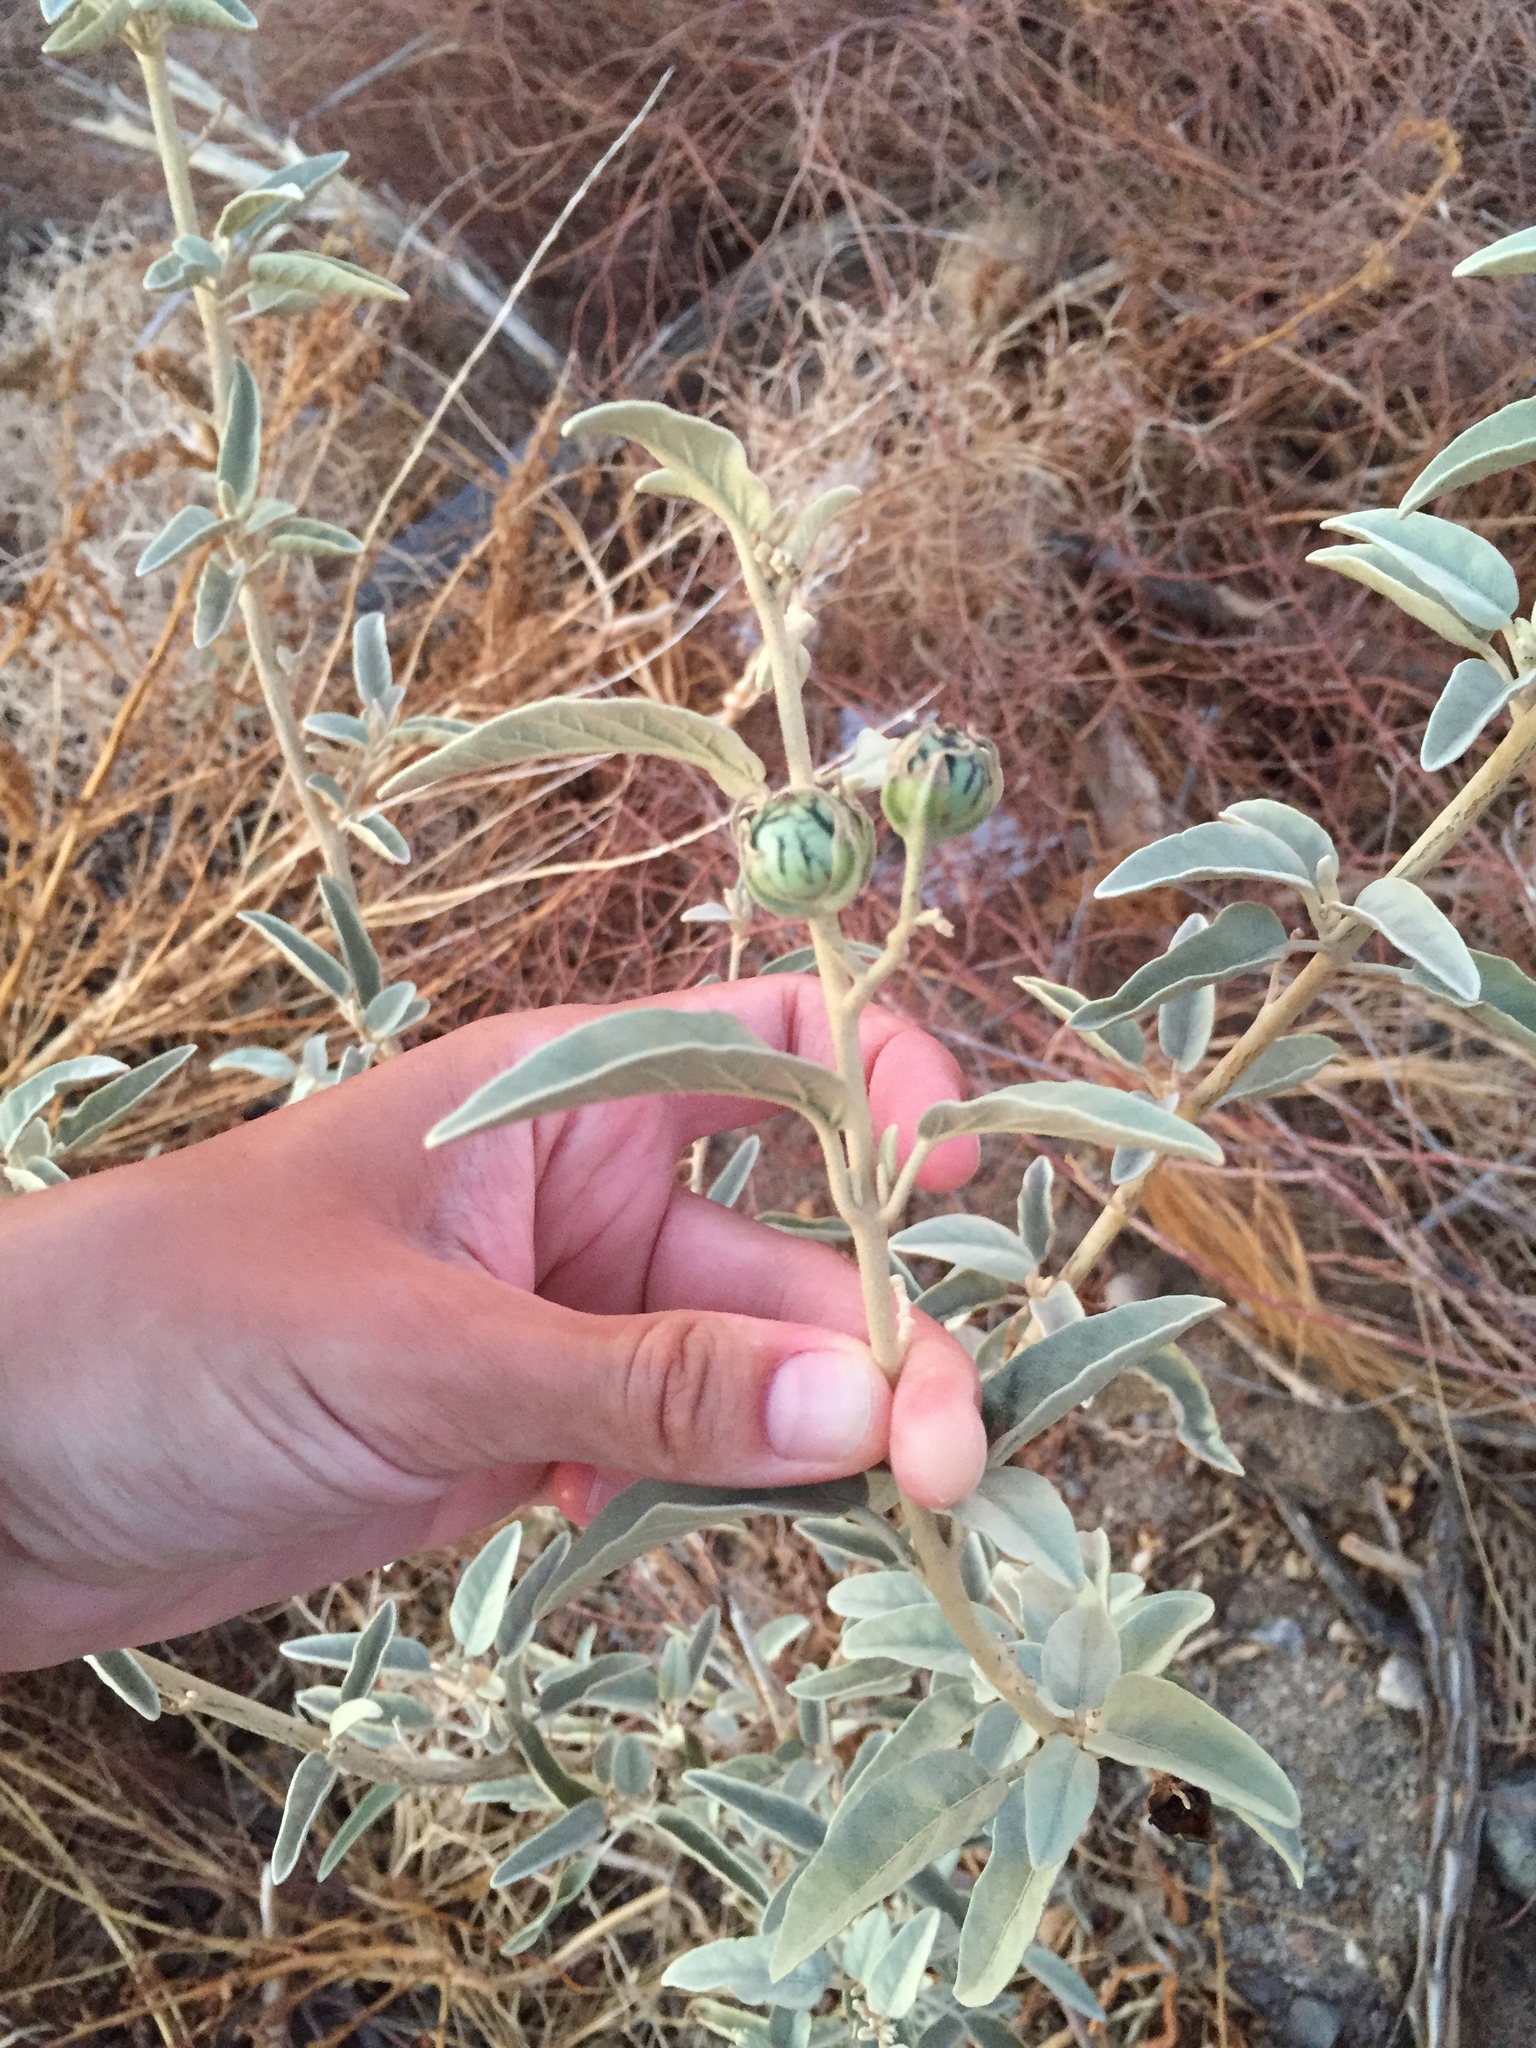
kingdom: Plantae
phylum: Tracheophyta
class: Magnoliopsida
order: Solanales
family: Solanaceae
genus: Solanum
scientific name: Solanum hindsianum
